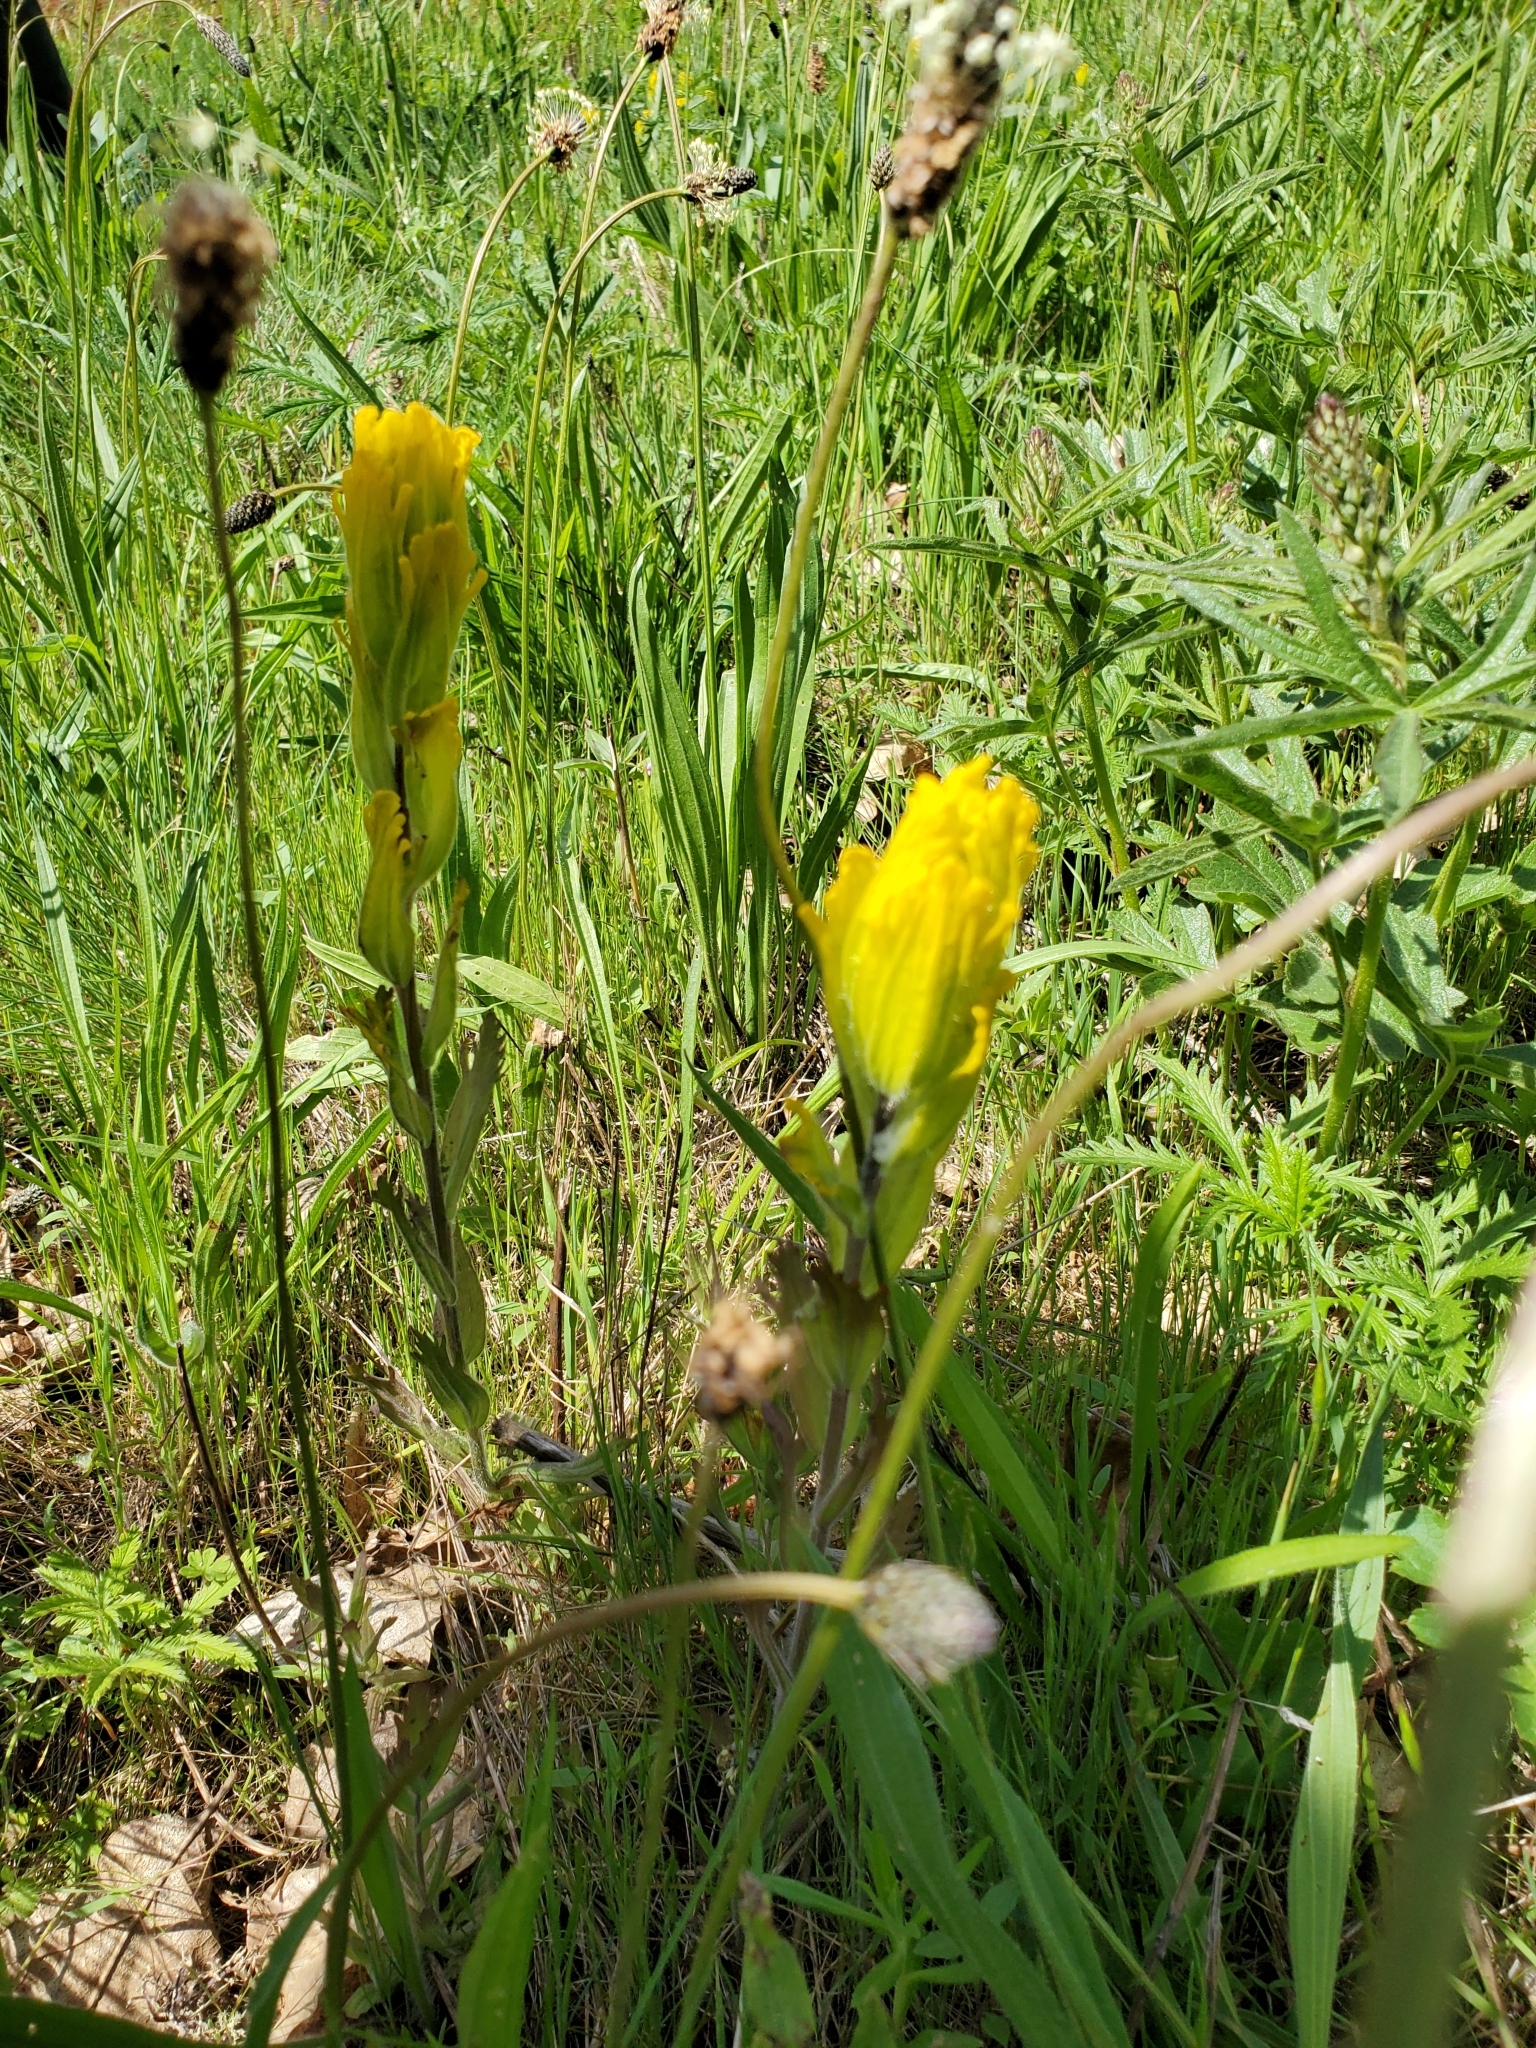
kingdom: Plantae
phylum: Tracheophyta
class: Magnoliopsida
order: Lamiales
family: Orobanchaceae
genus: Castilleja
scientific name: Castilleja levisecta
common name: Golden paintbrush
